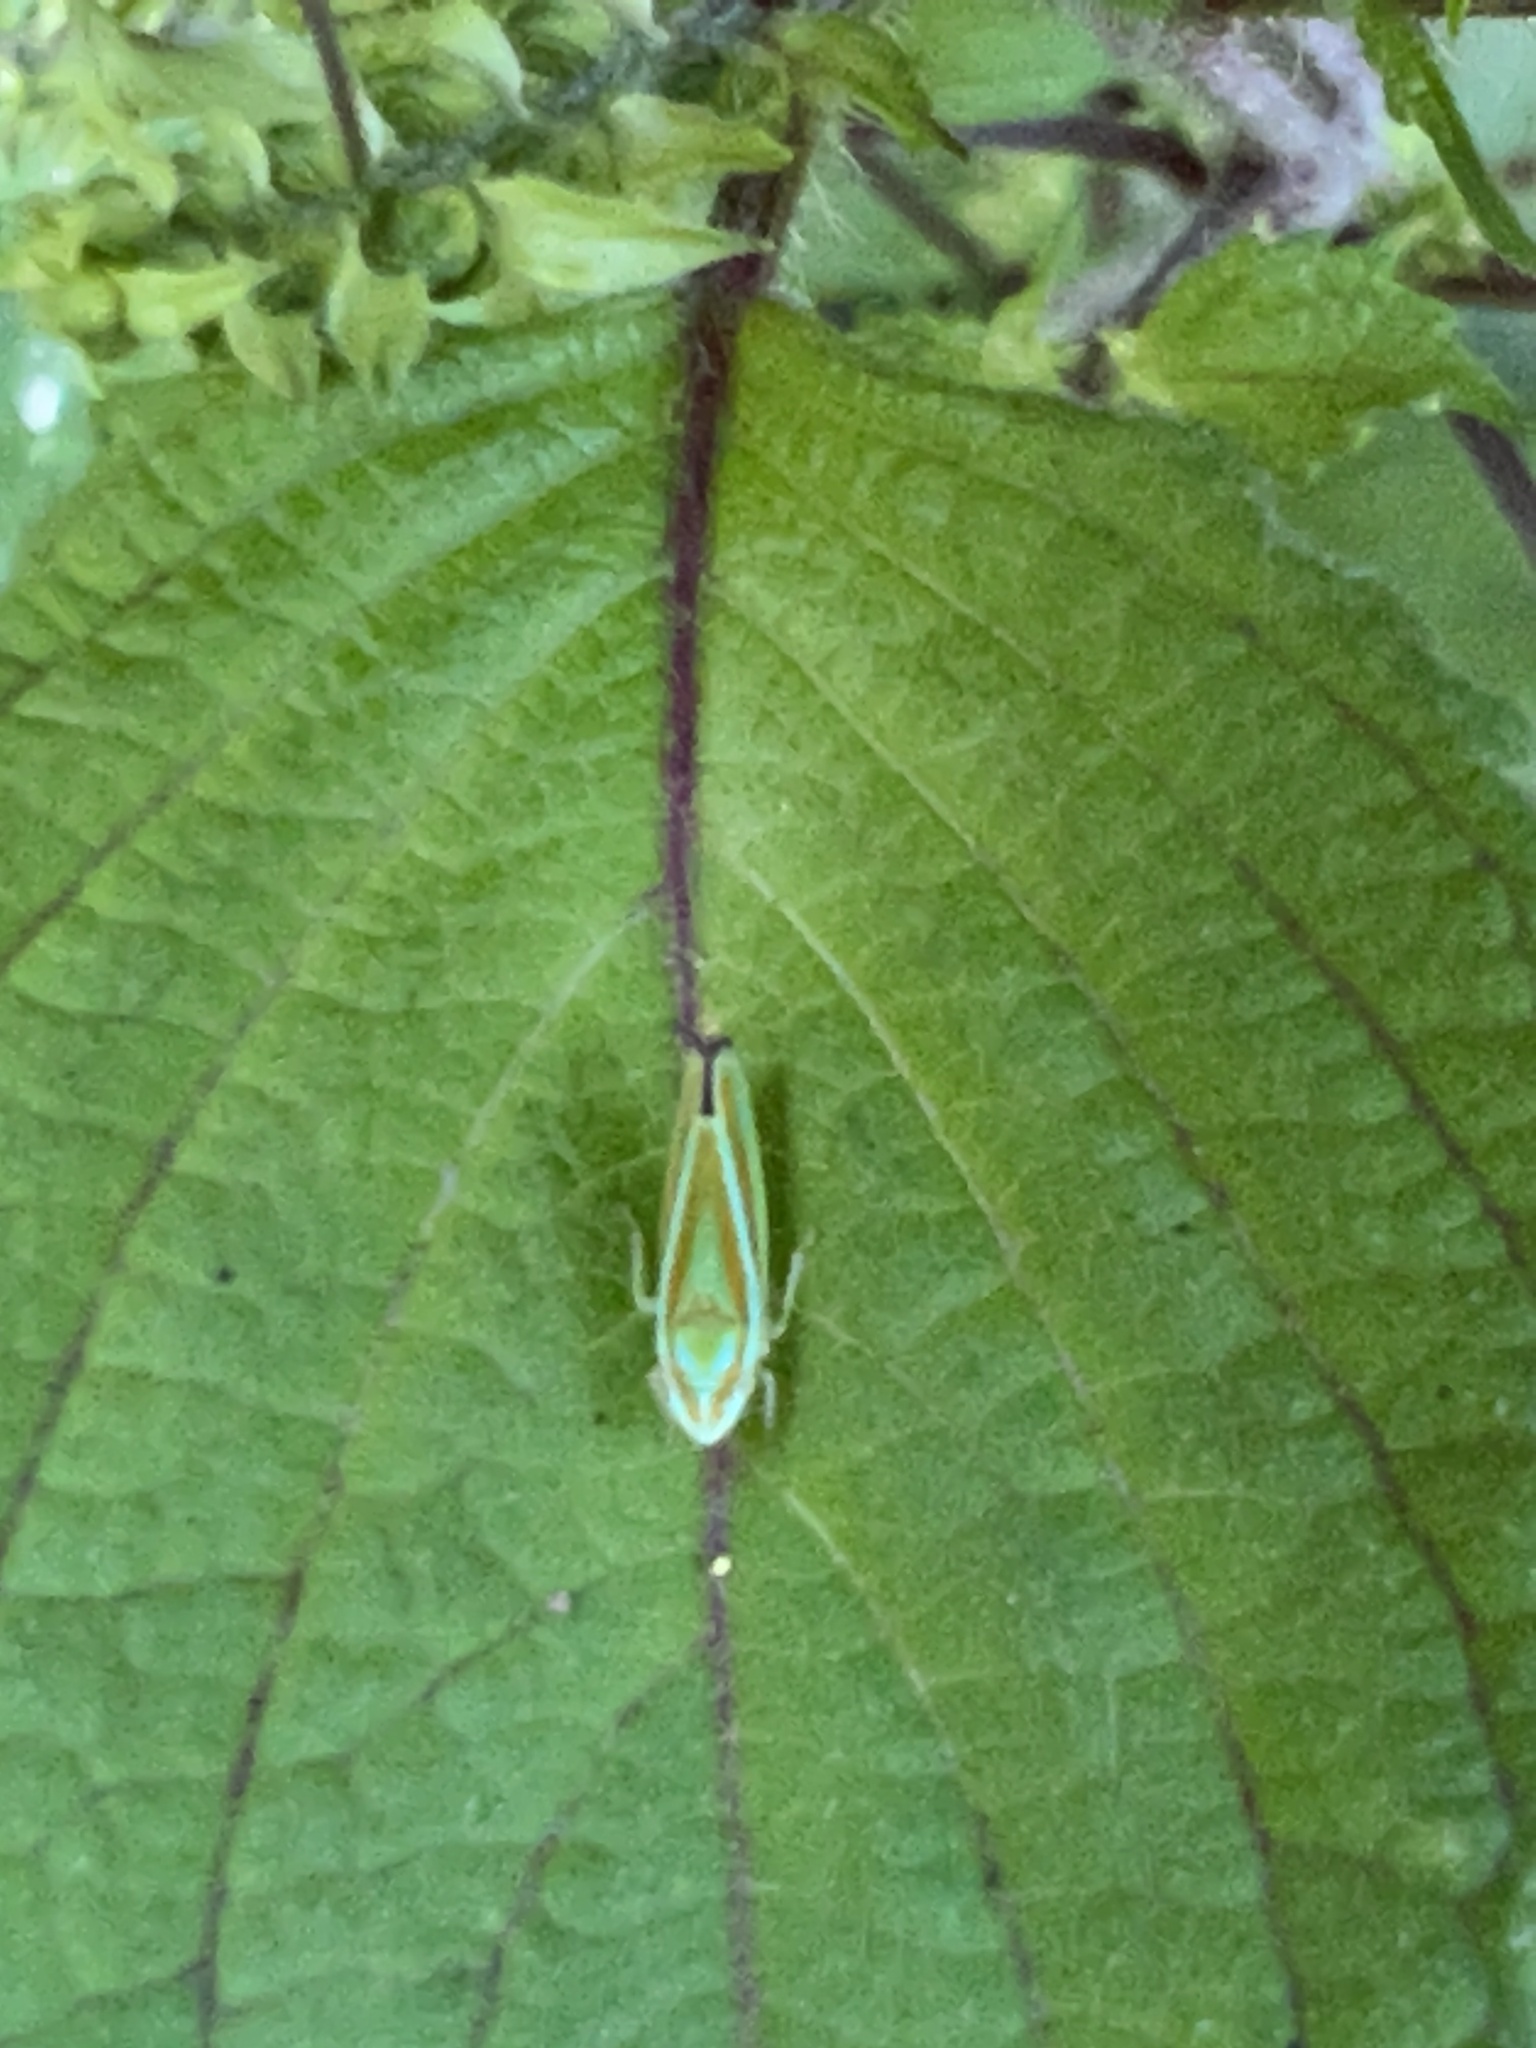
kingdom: Animalia
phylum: Arthropoda
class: Insecta
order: Hemiptera
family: Cicadellidae
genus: Graphocephala
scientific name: Graphocephala versuta
